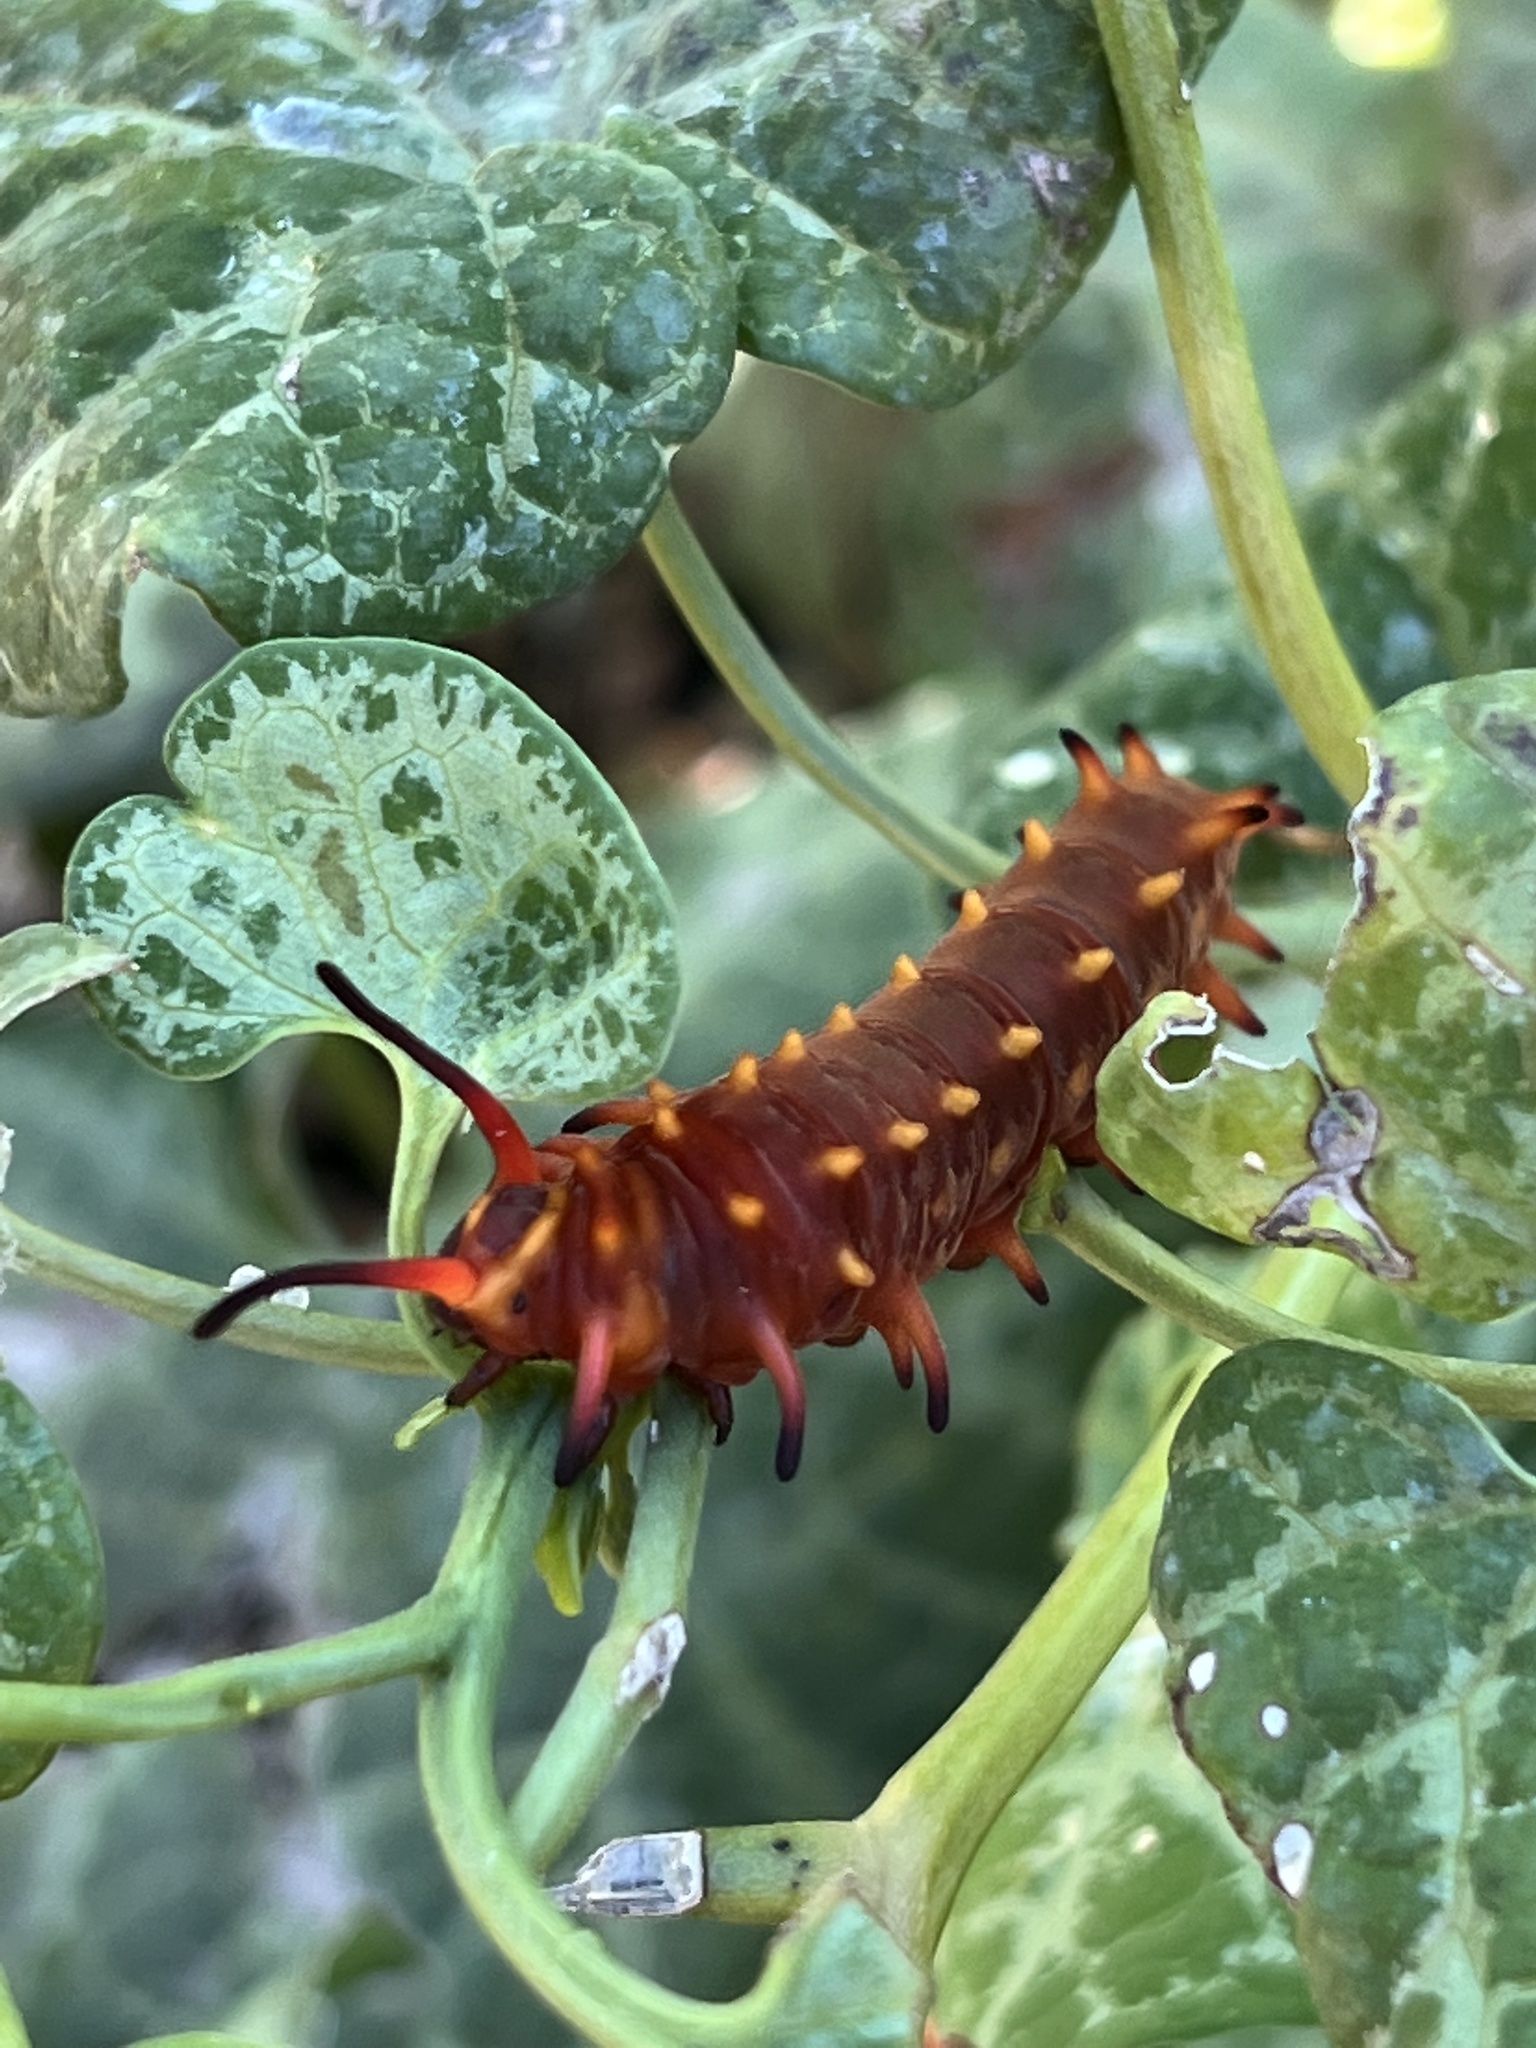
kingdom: Animalia
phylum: Arthropoda
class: Insecta
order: Lepidoptera
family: Papilionidae
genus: Battus
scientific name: Battus philenor
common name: Pipevine swallowtail
